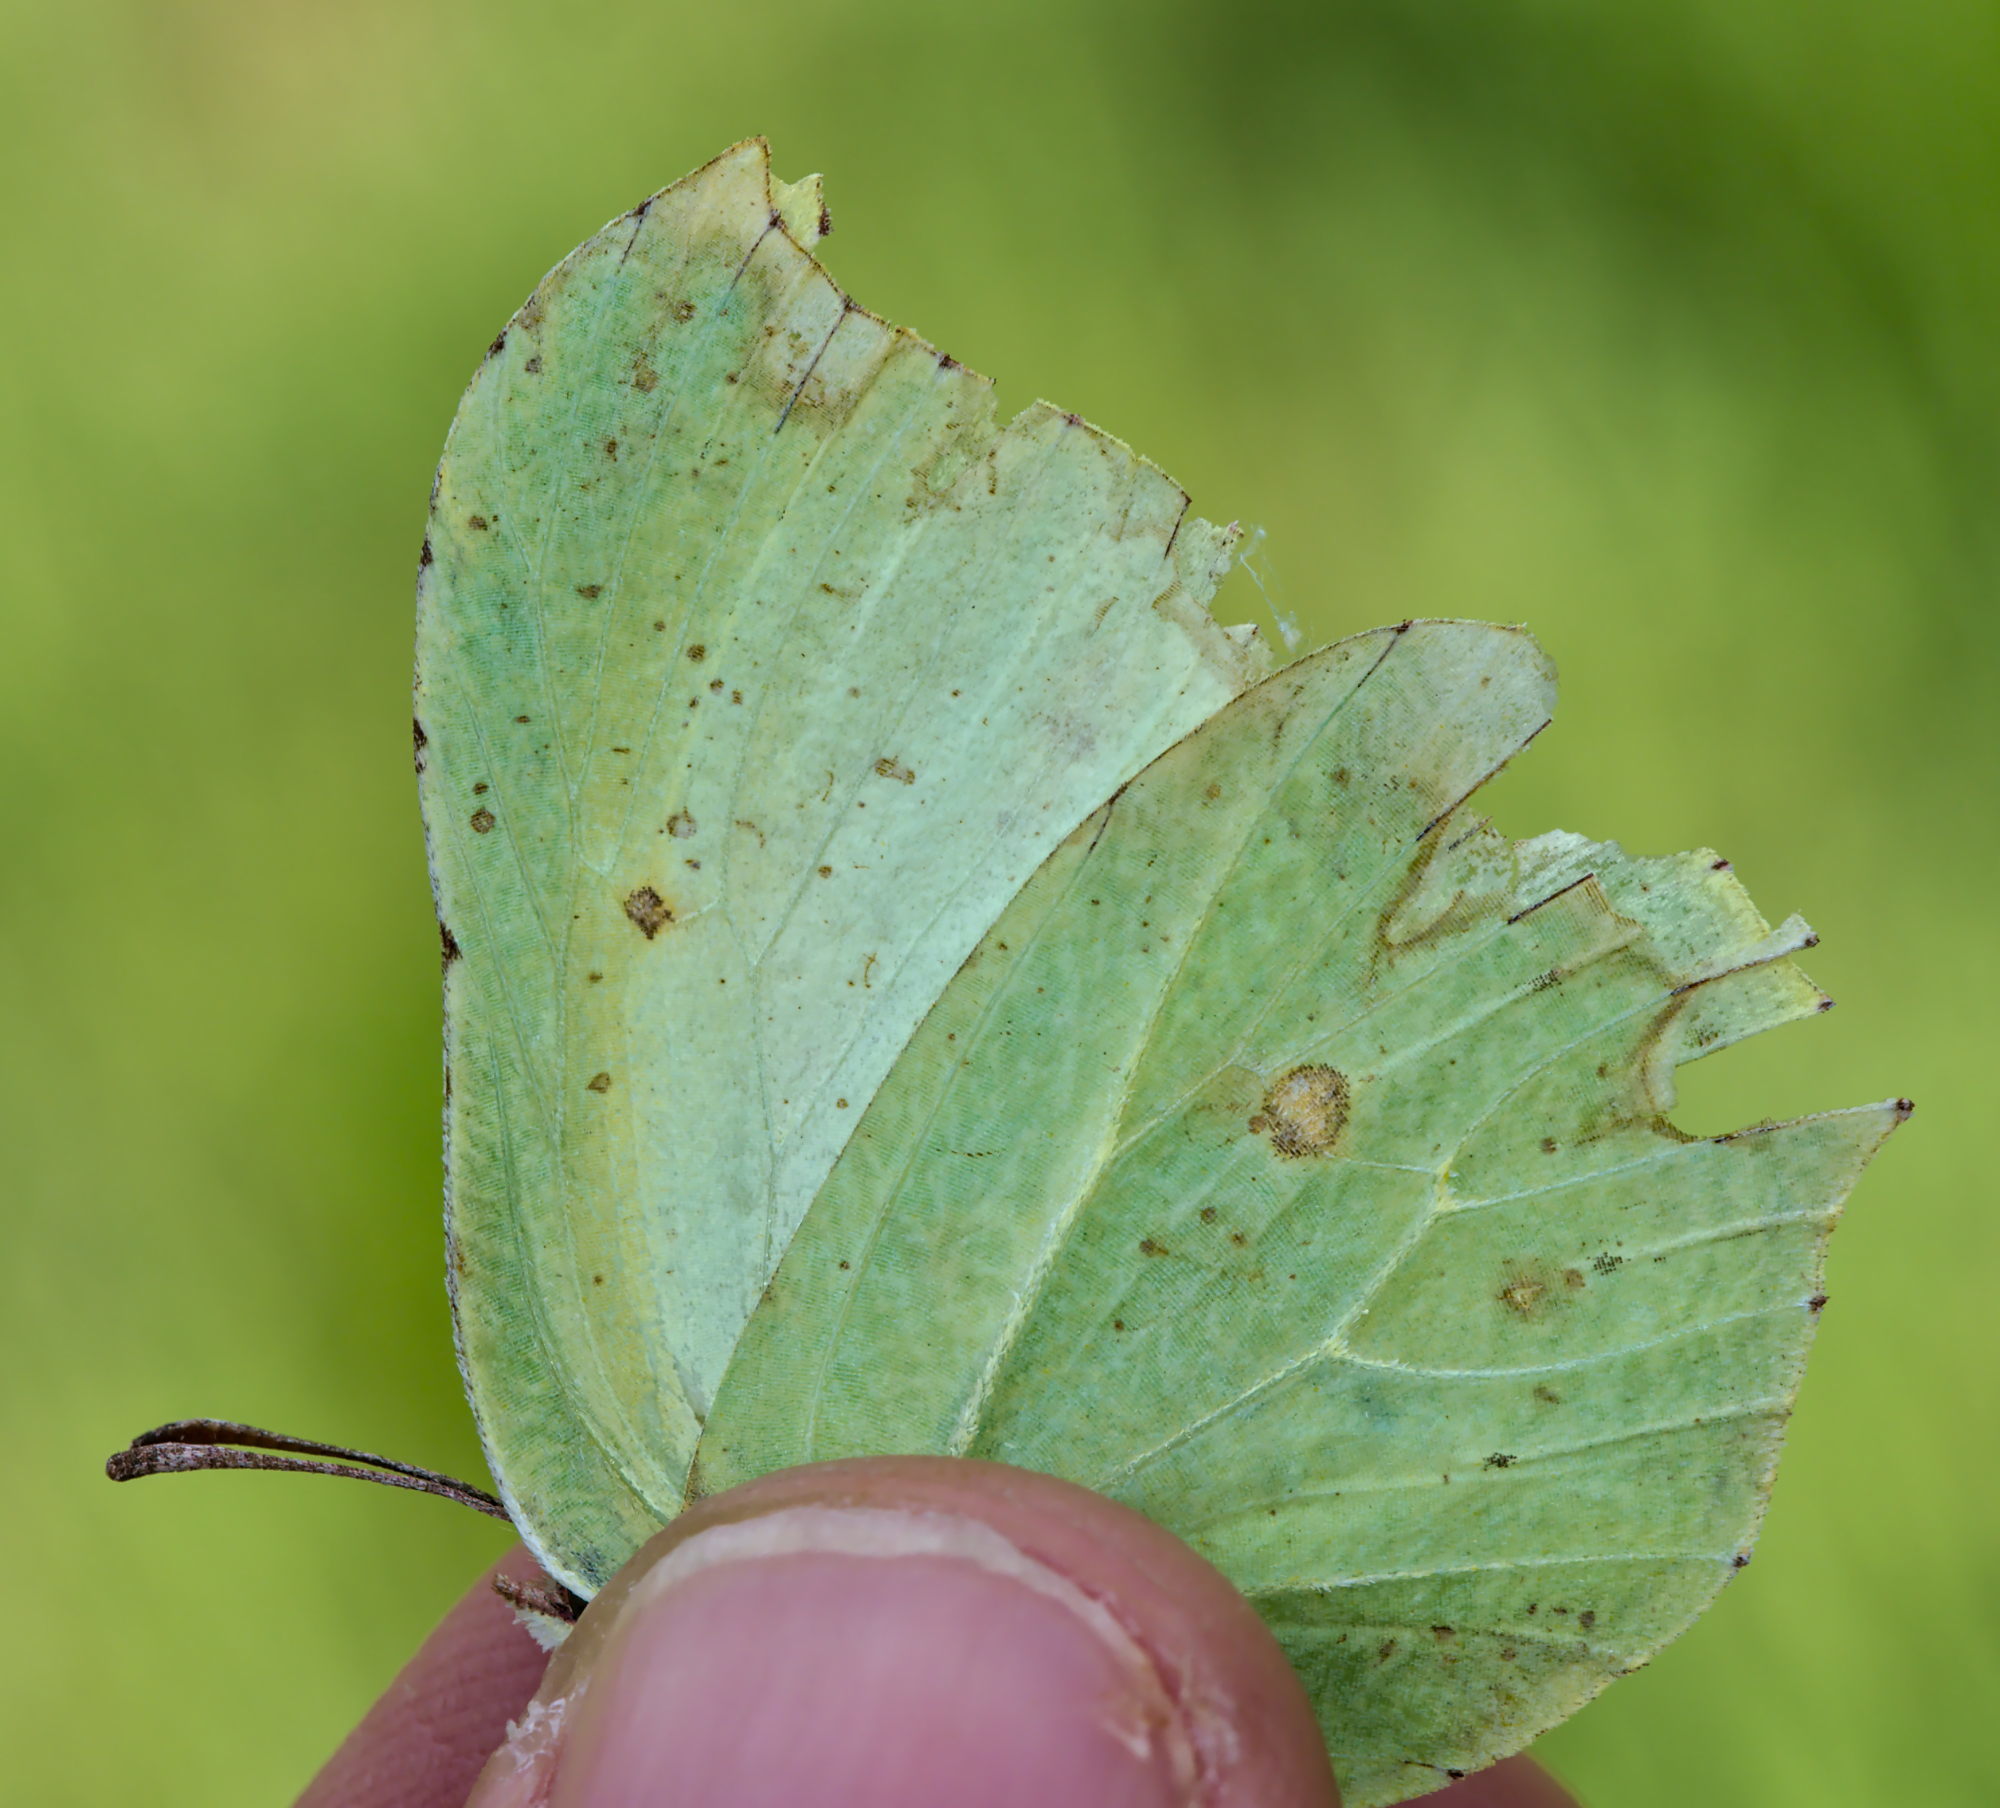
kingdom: Animalia
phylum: Arthropoda
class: Insecta
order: Lepidoptera
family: Pieridae
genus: Gonepteryx
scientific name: Gonepteryx rhamni
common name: Brimstone
